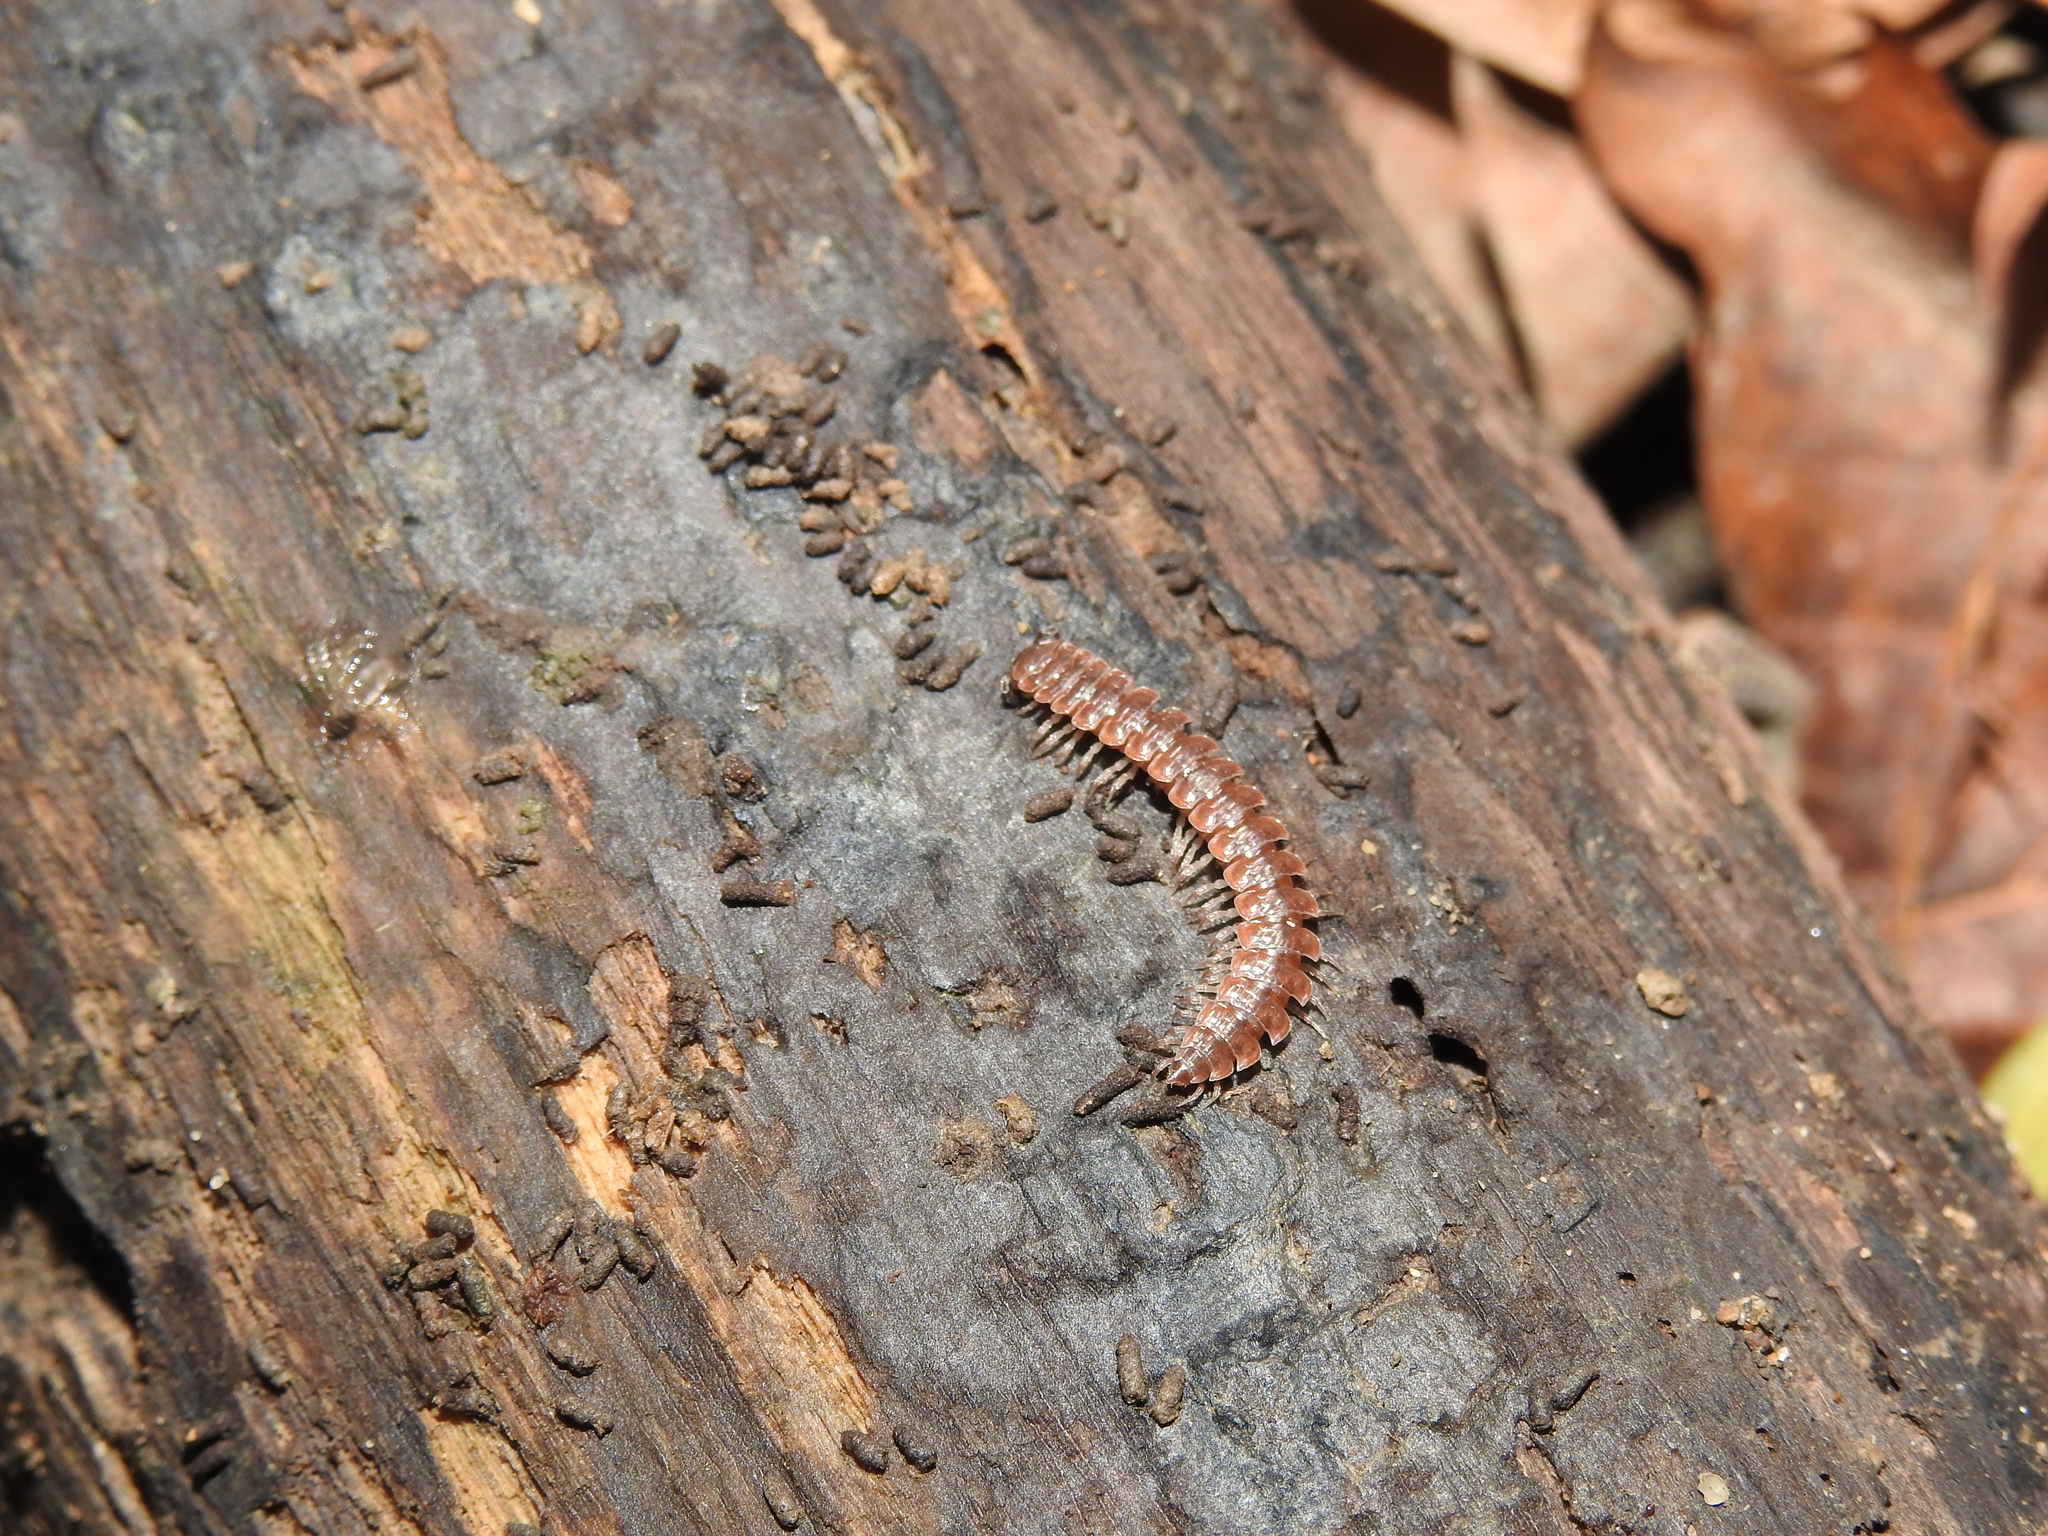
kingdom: Animalia
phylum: Arthropoda
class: Diplopoda
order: Polydesmida
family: Polydesmidae
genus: Pseudopolydesmus
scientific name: Pseudopolydesmus serratus
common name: Common pink flat-back millipede
